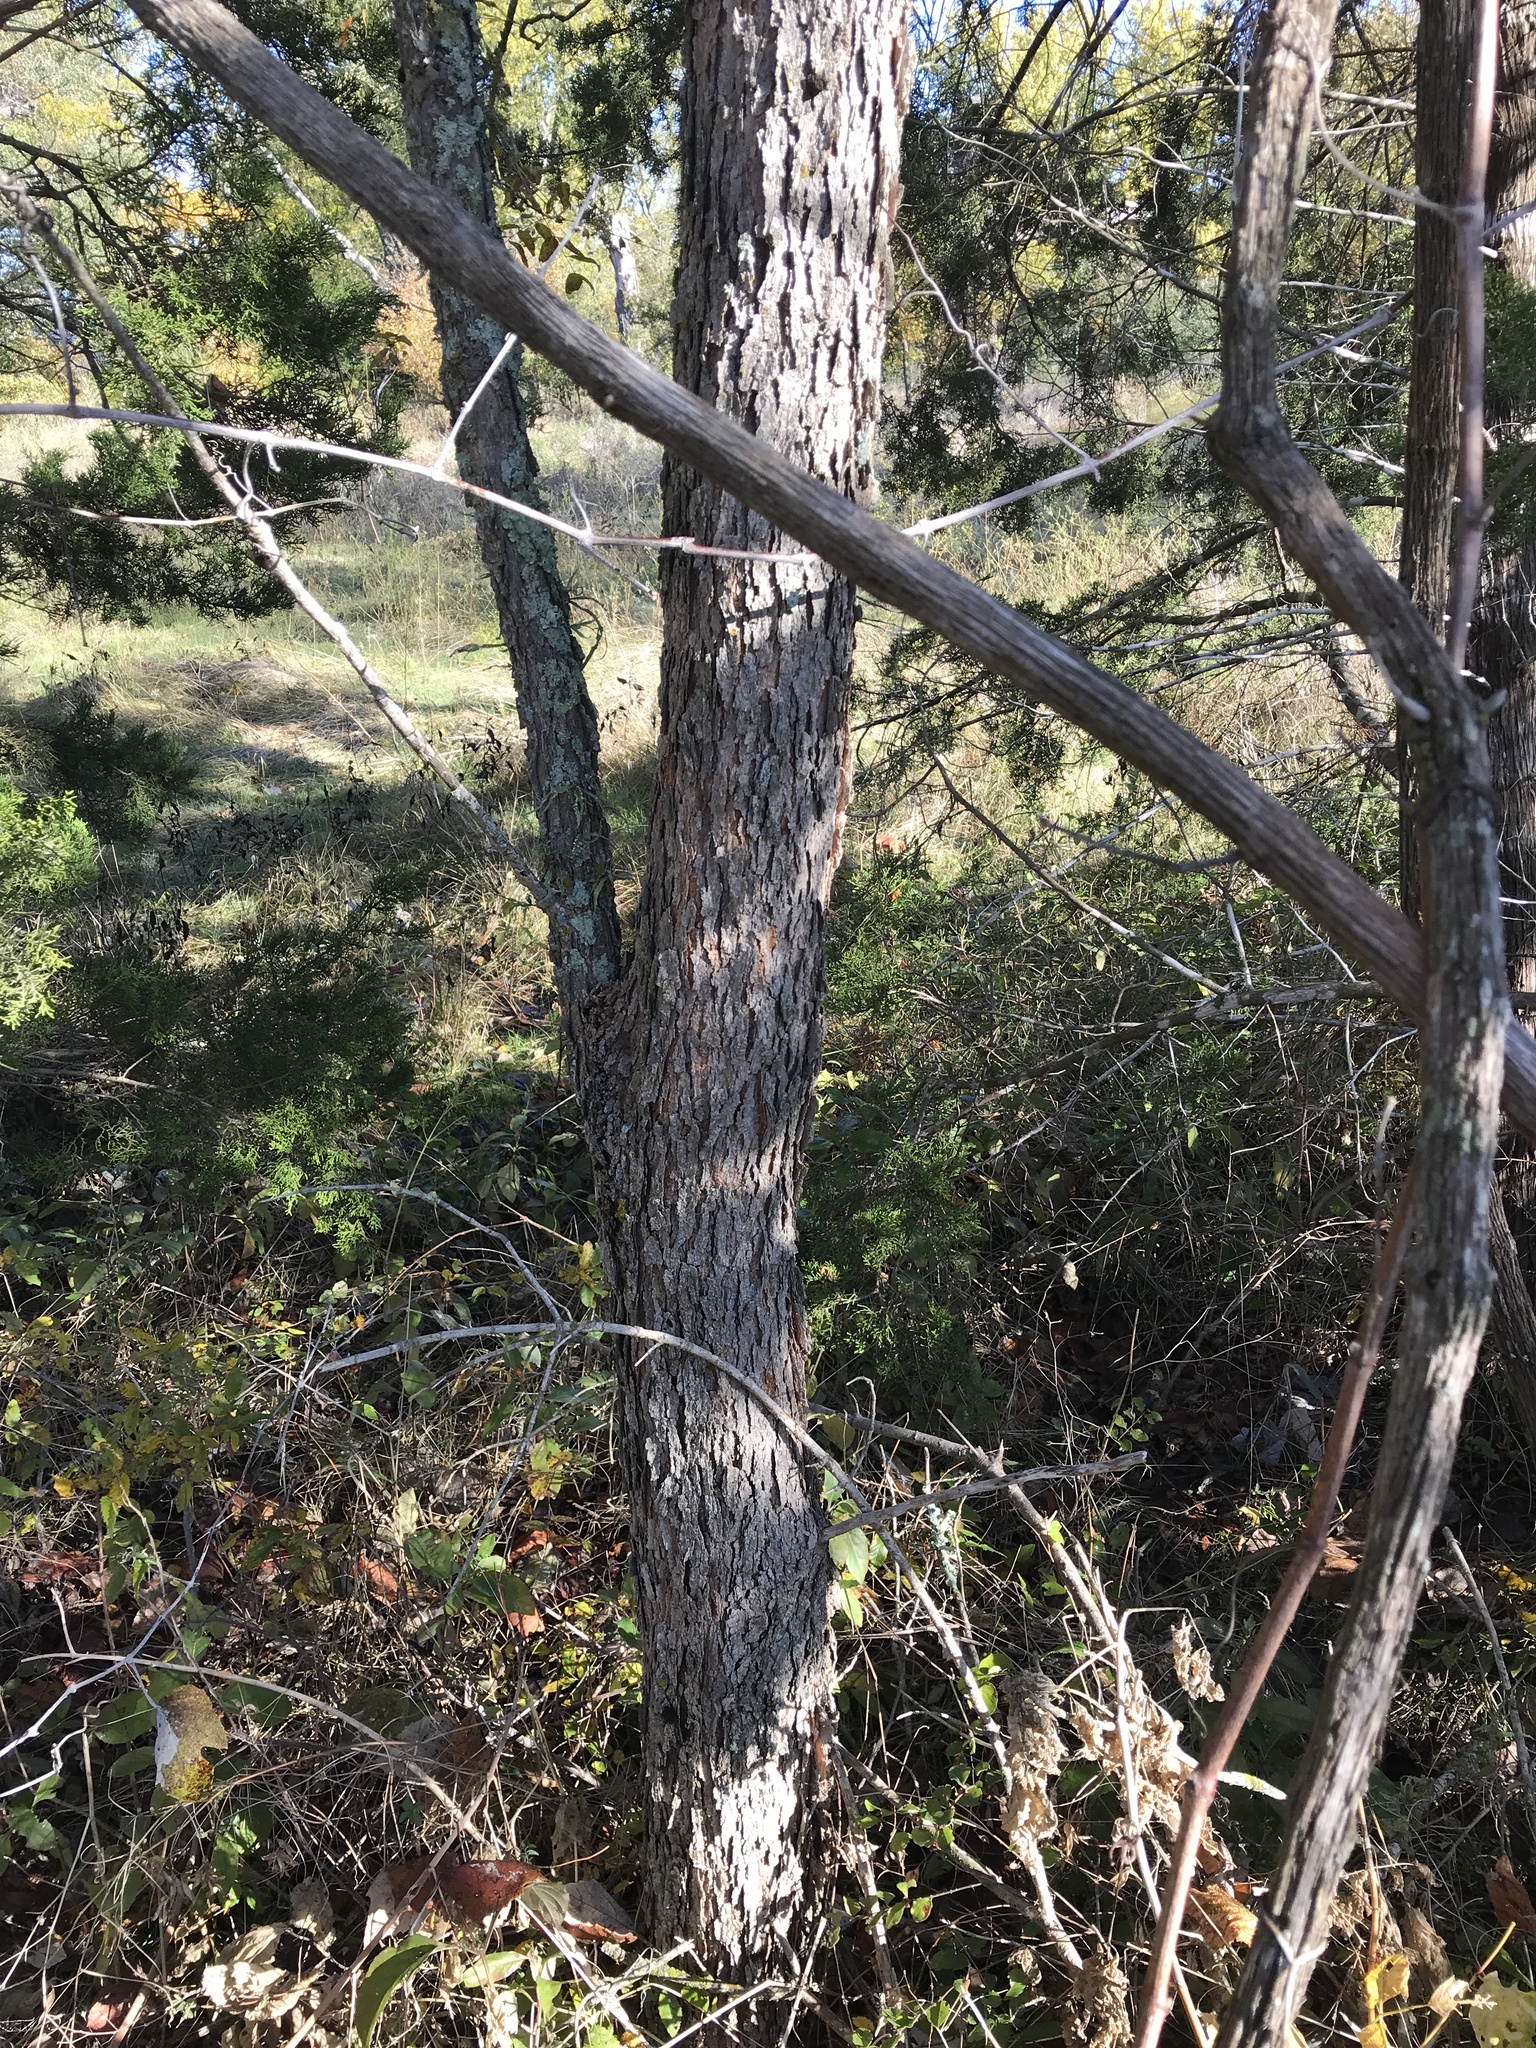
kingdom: Plantae
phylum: Tracheophyta
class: Magnoliopsida
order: Sapindales
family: Sapindaceae
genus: Sapindus
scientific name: Sapindus drummondii
